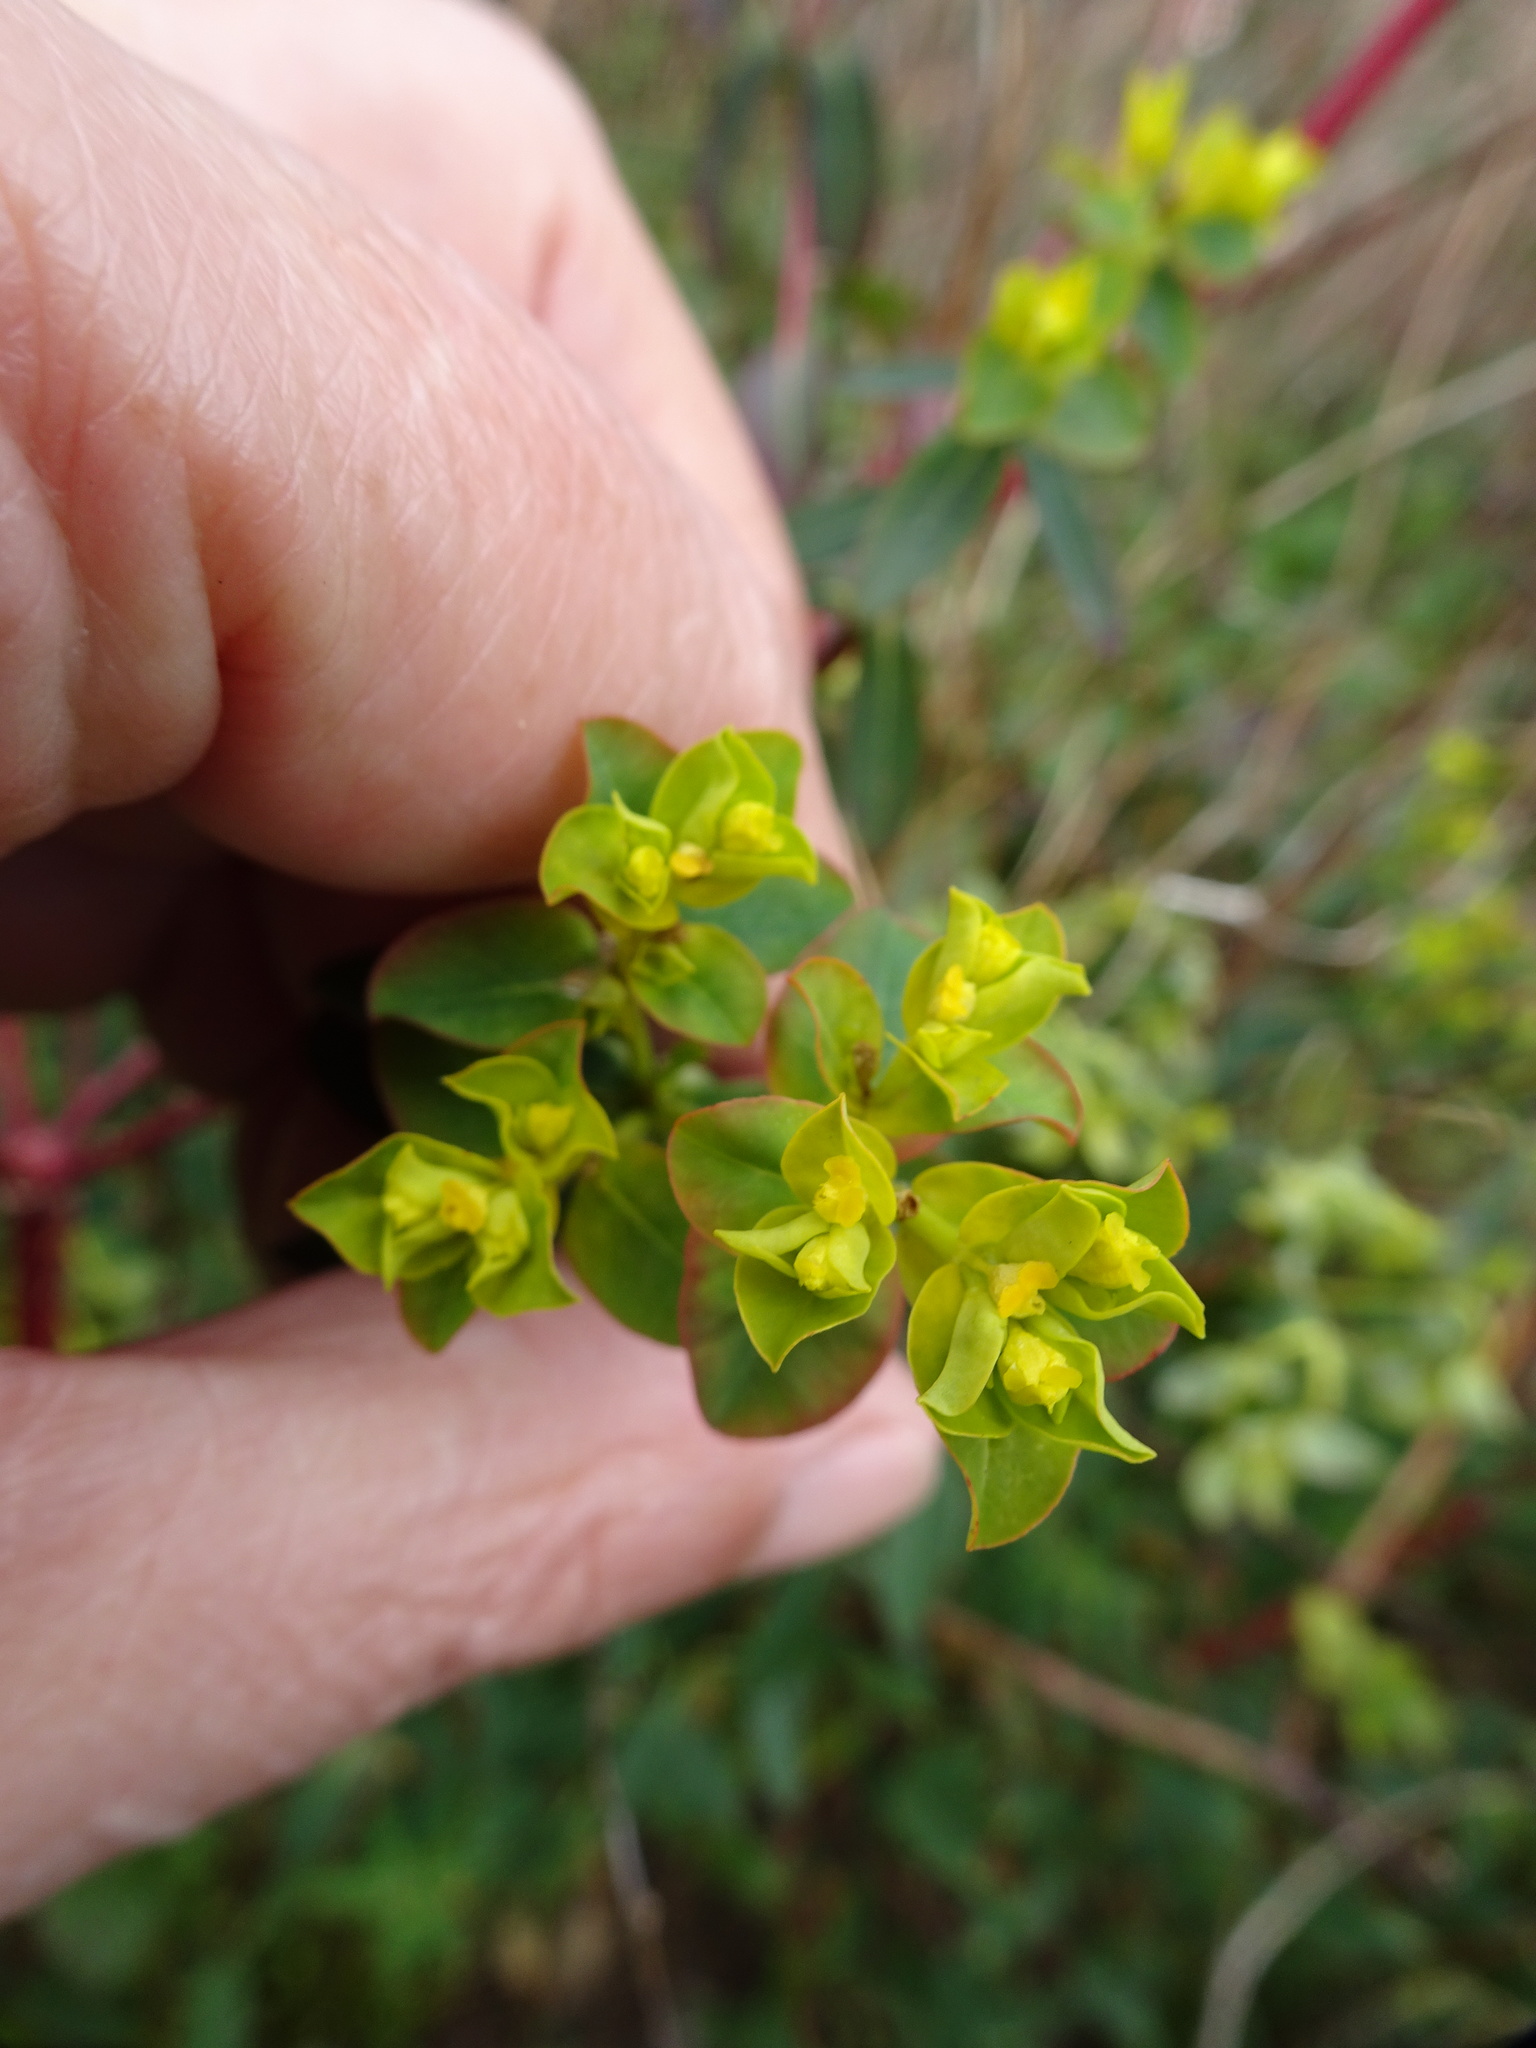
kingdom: Plantae
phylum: Tracheophyta
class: Magnoliopsida
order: Malpighiales
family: Euphorbiaceae
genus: Euphorbia
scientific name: Euphorbia oblongata
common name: Balkan spurge
